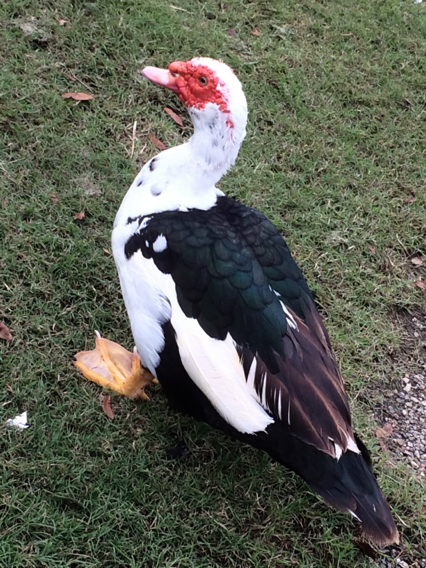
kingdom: Animalia
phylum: Chordata
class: Aves
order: Anseriformes
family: Anatidae
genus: Cairina
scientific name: Cairina moschata
